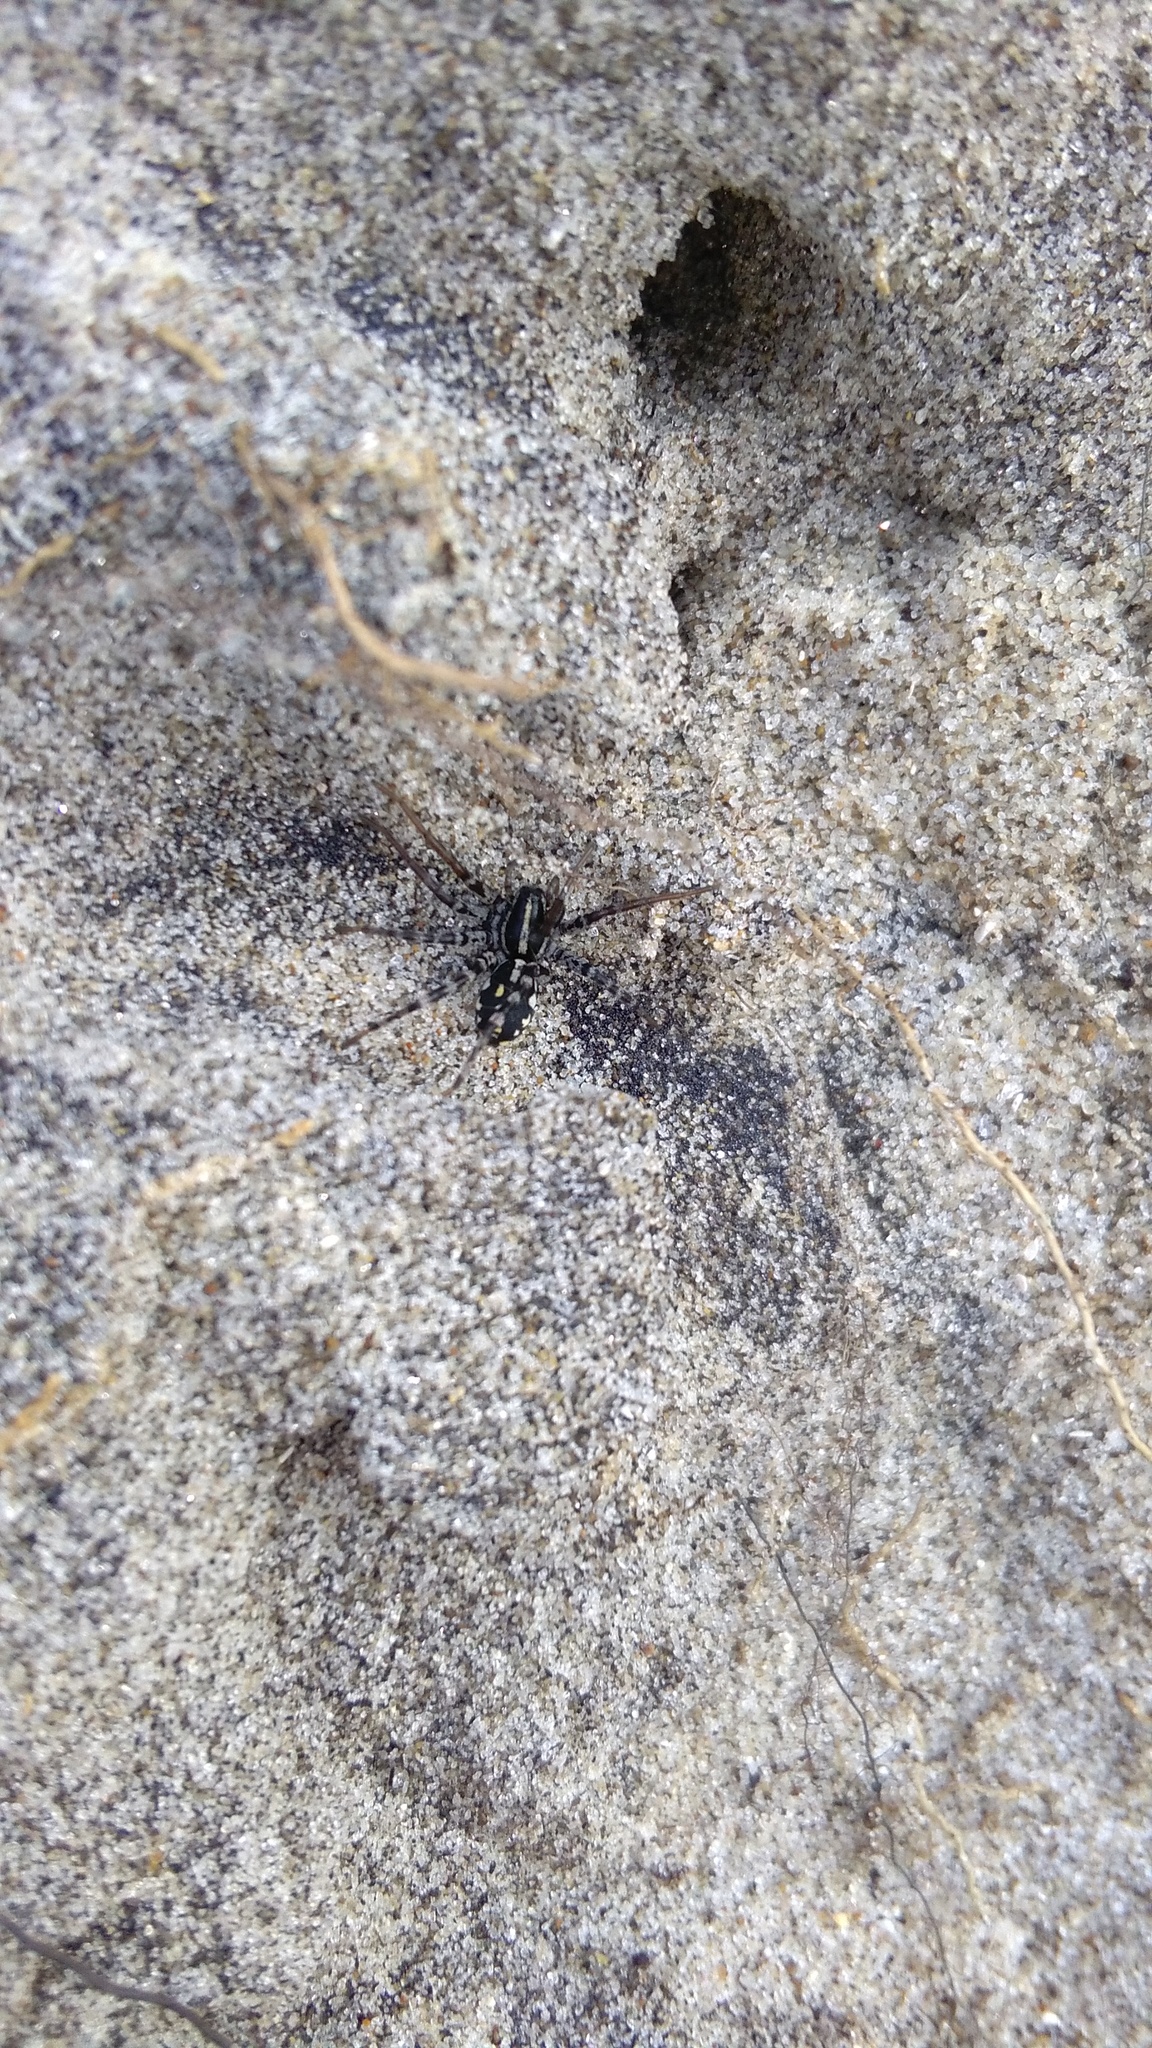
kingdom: Animalia
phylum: Arthropoda
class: Arachnida
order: Araneae
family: Corinnidae
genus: Nyssus
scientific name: Nyssus coloripes
